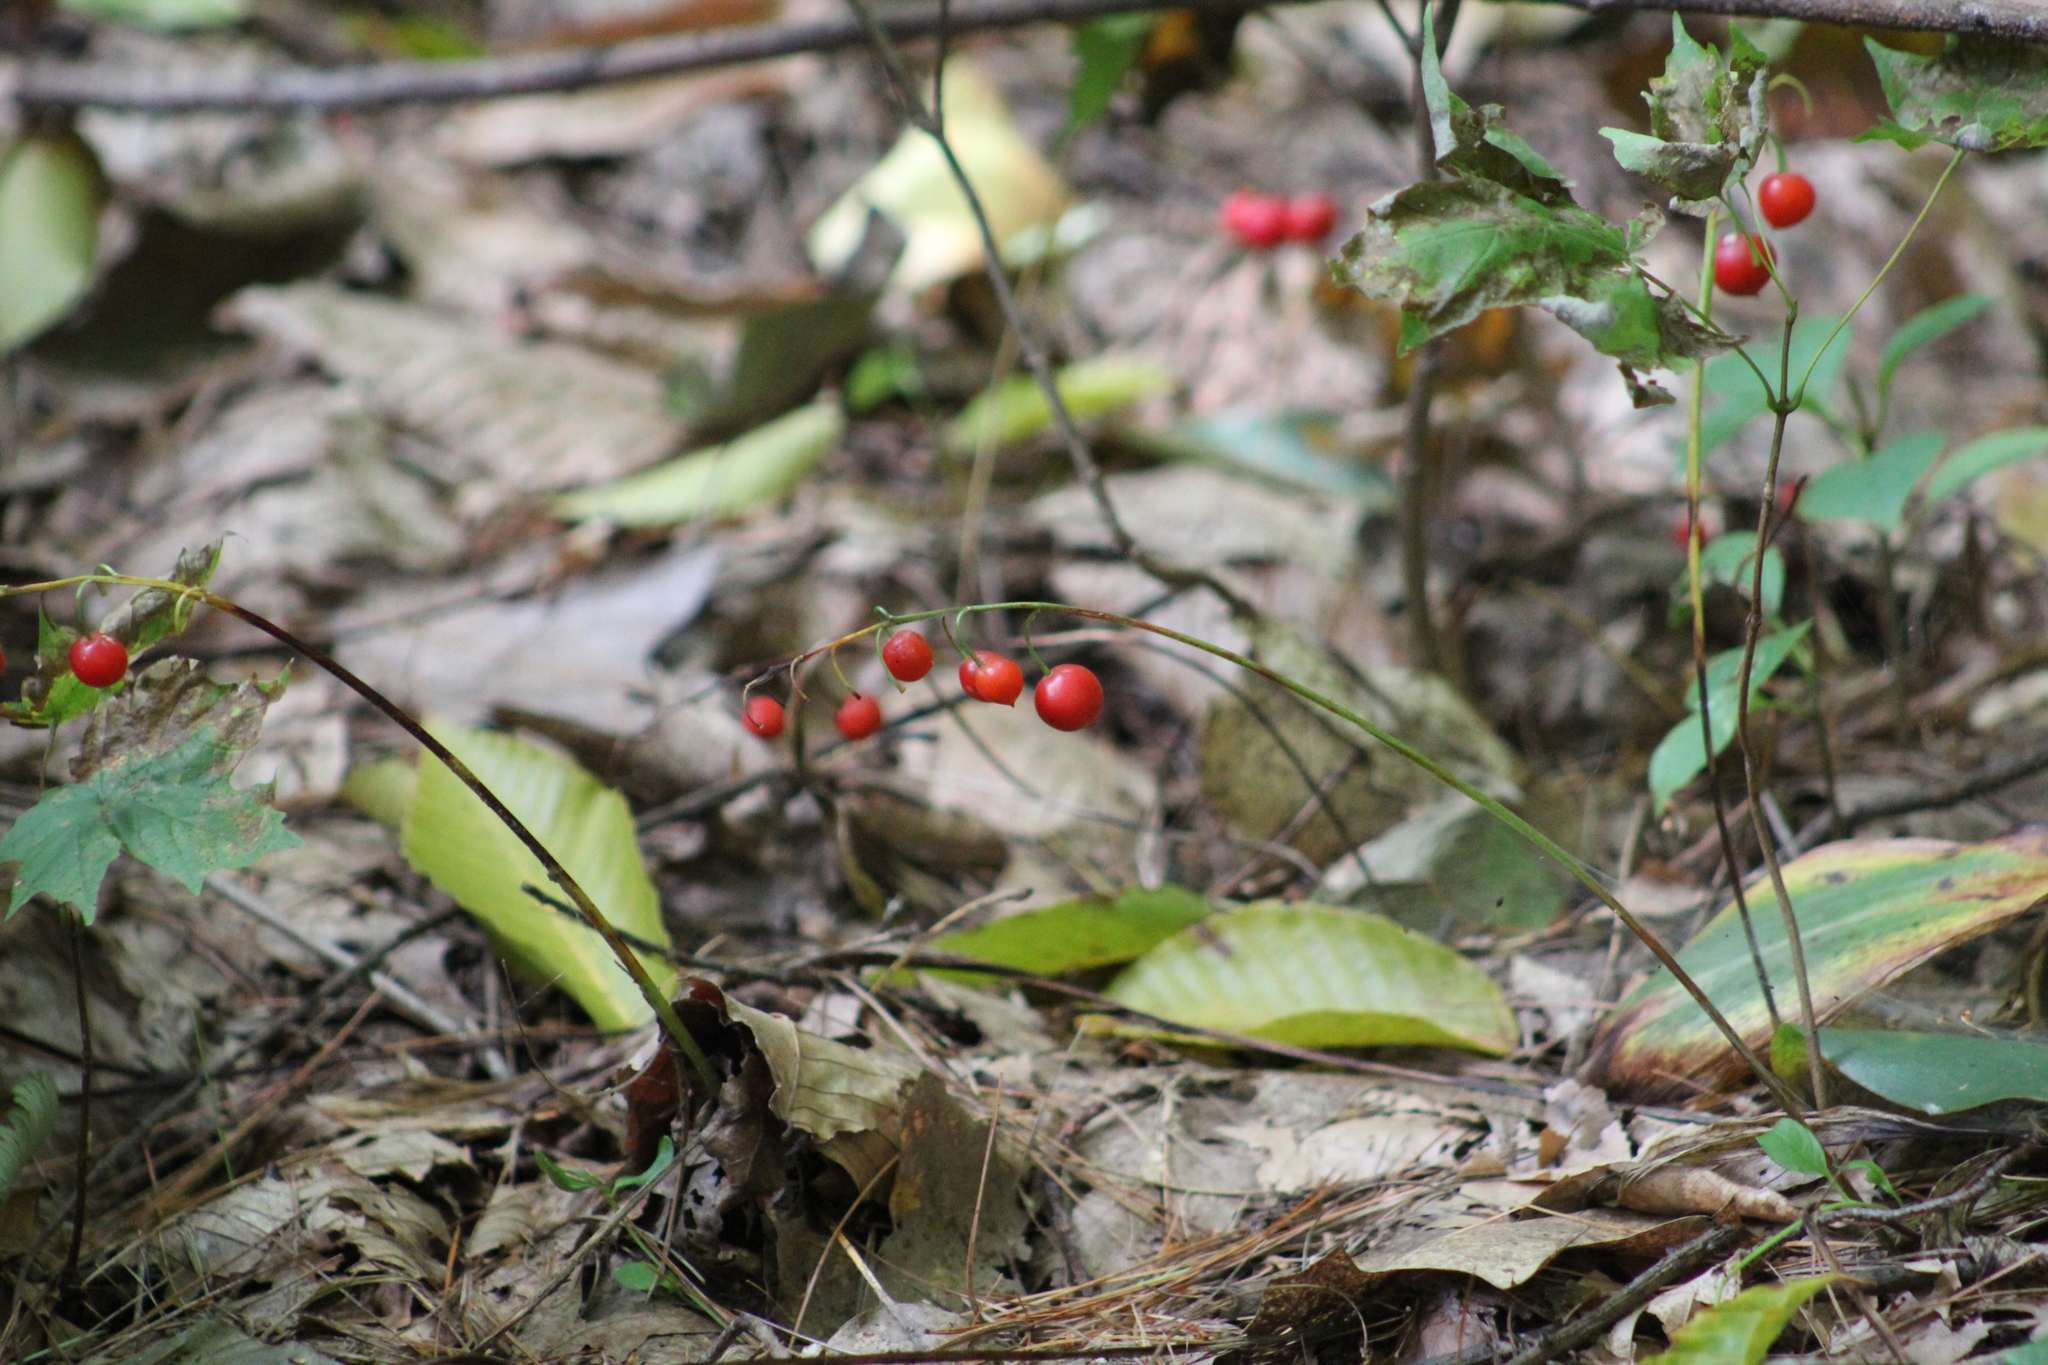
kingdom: Plantae
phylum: Tracheophyta
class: Liliopsida
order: Asparagales
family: Asparagaceae
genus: Convallaria
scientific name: Convallaria majalis
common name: Lily-of-the-valley
